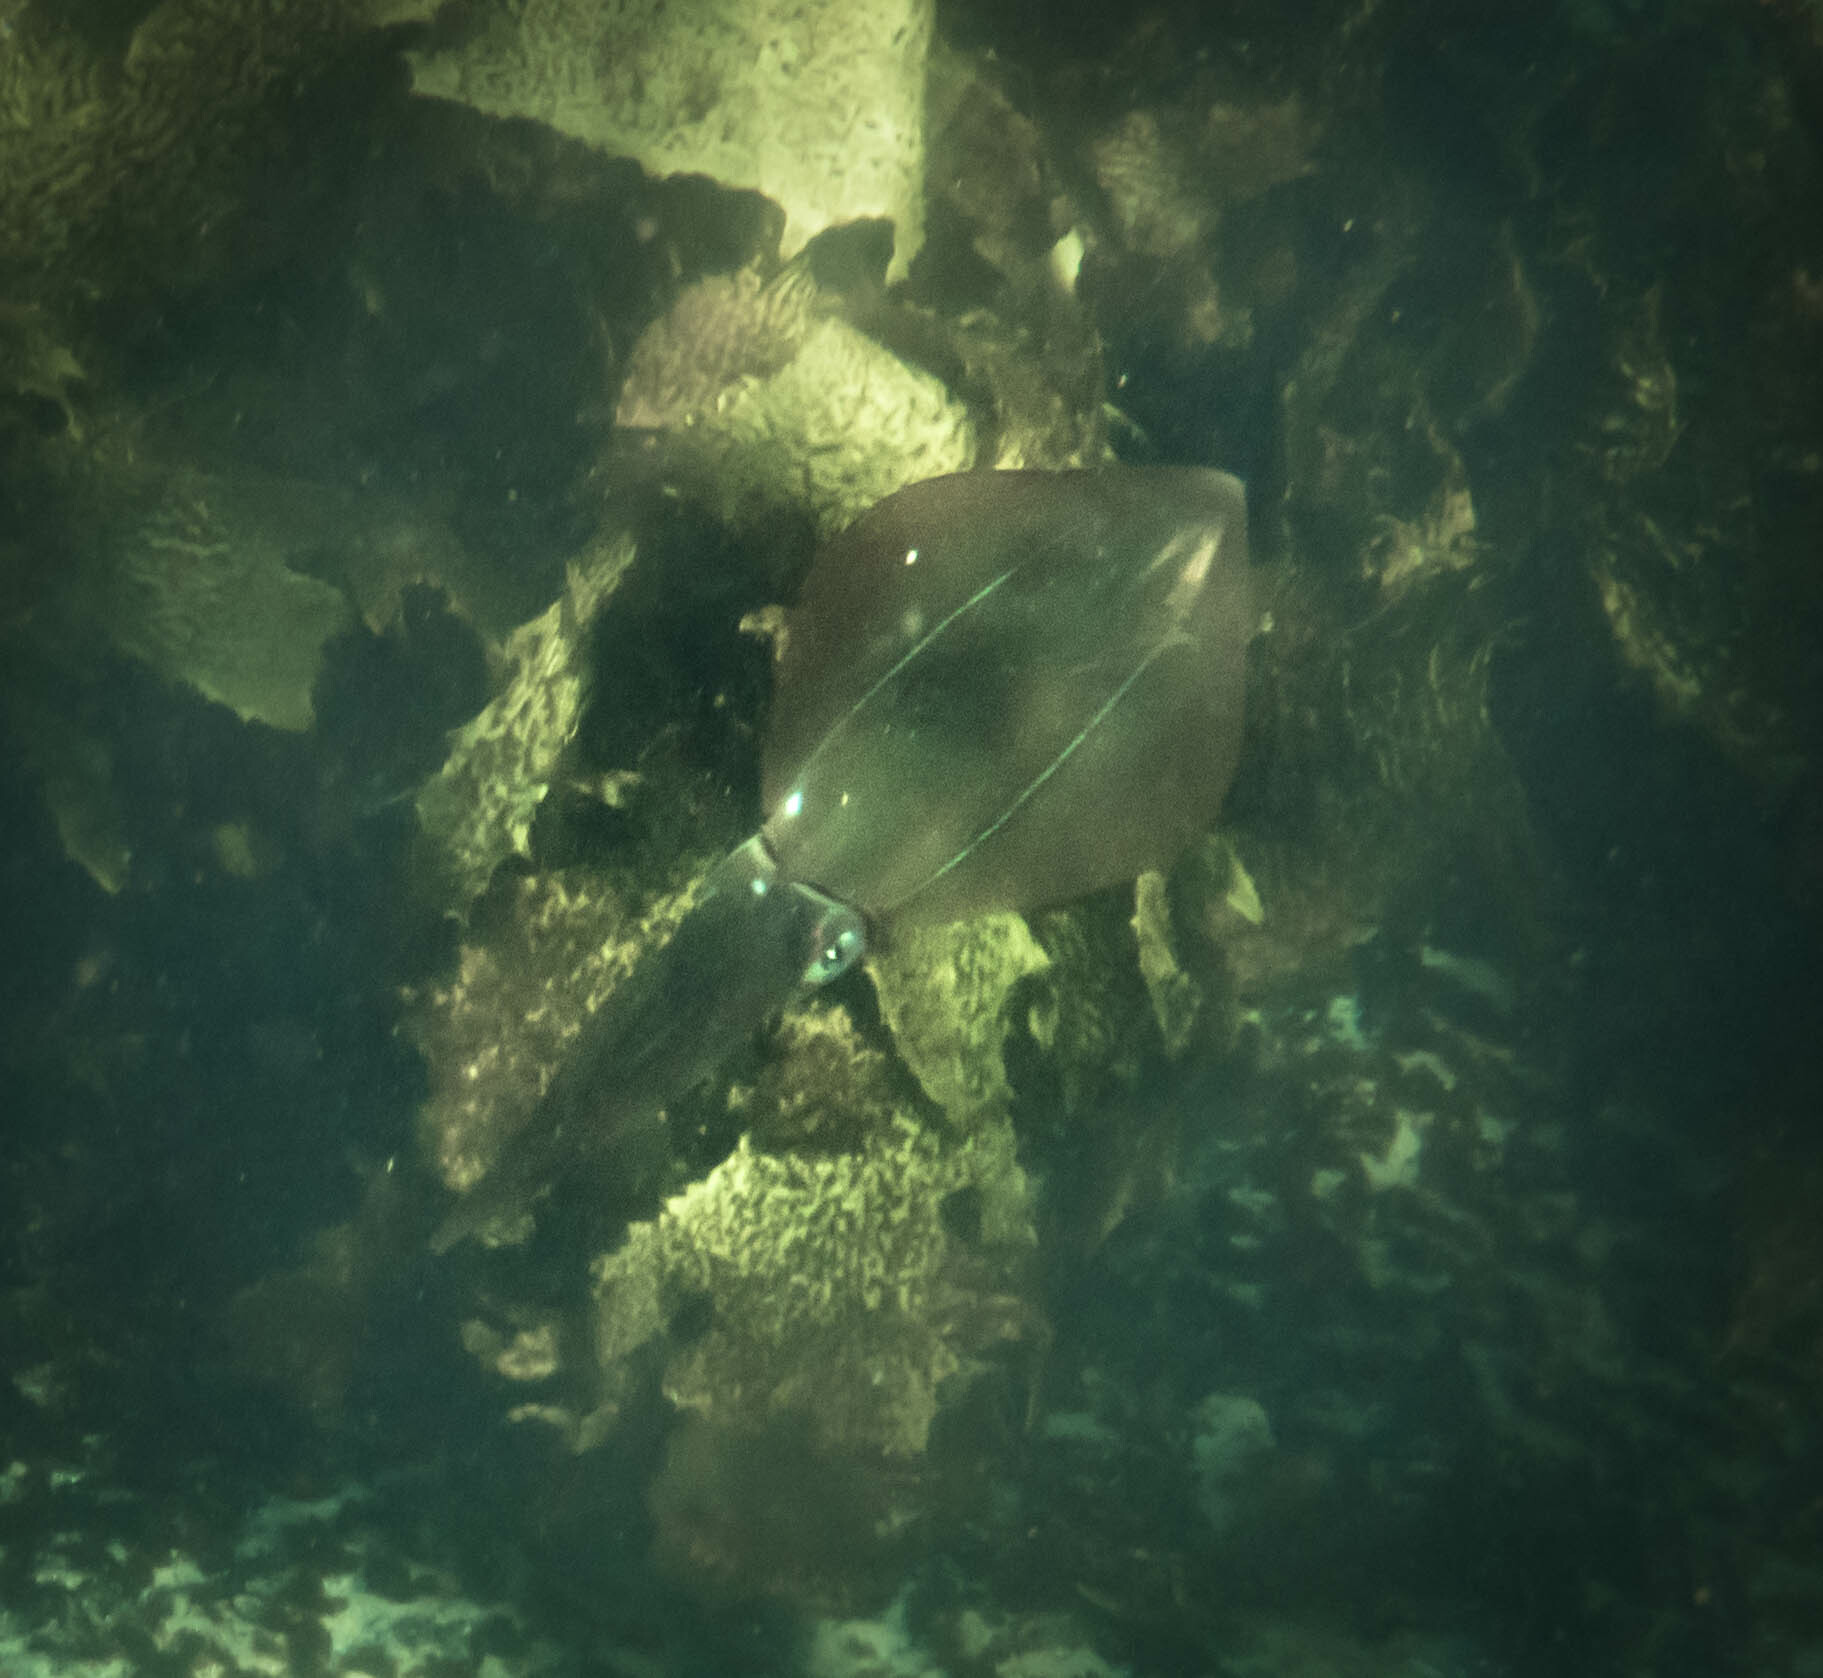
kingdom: Animalia
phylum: Mollusca
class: Cephalopoda
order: Myopsida
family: Loliginidae
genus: Sepioteuthis
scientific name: Sepioteuthis australis
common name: Southern reef squid
